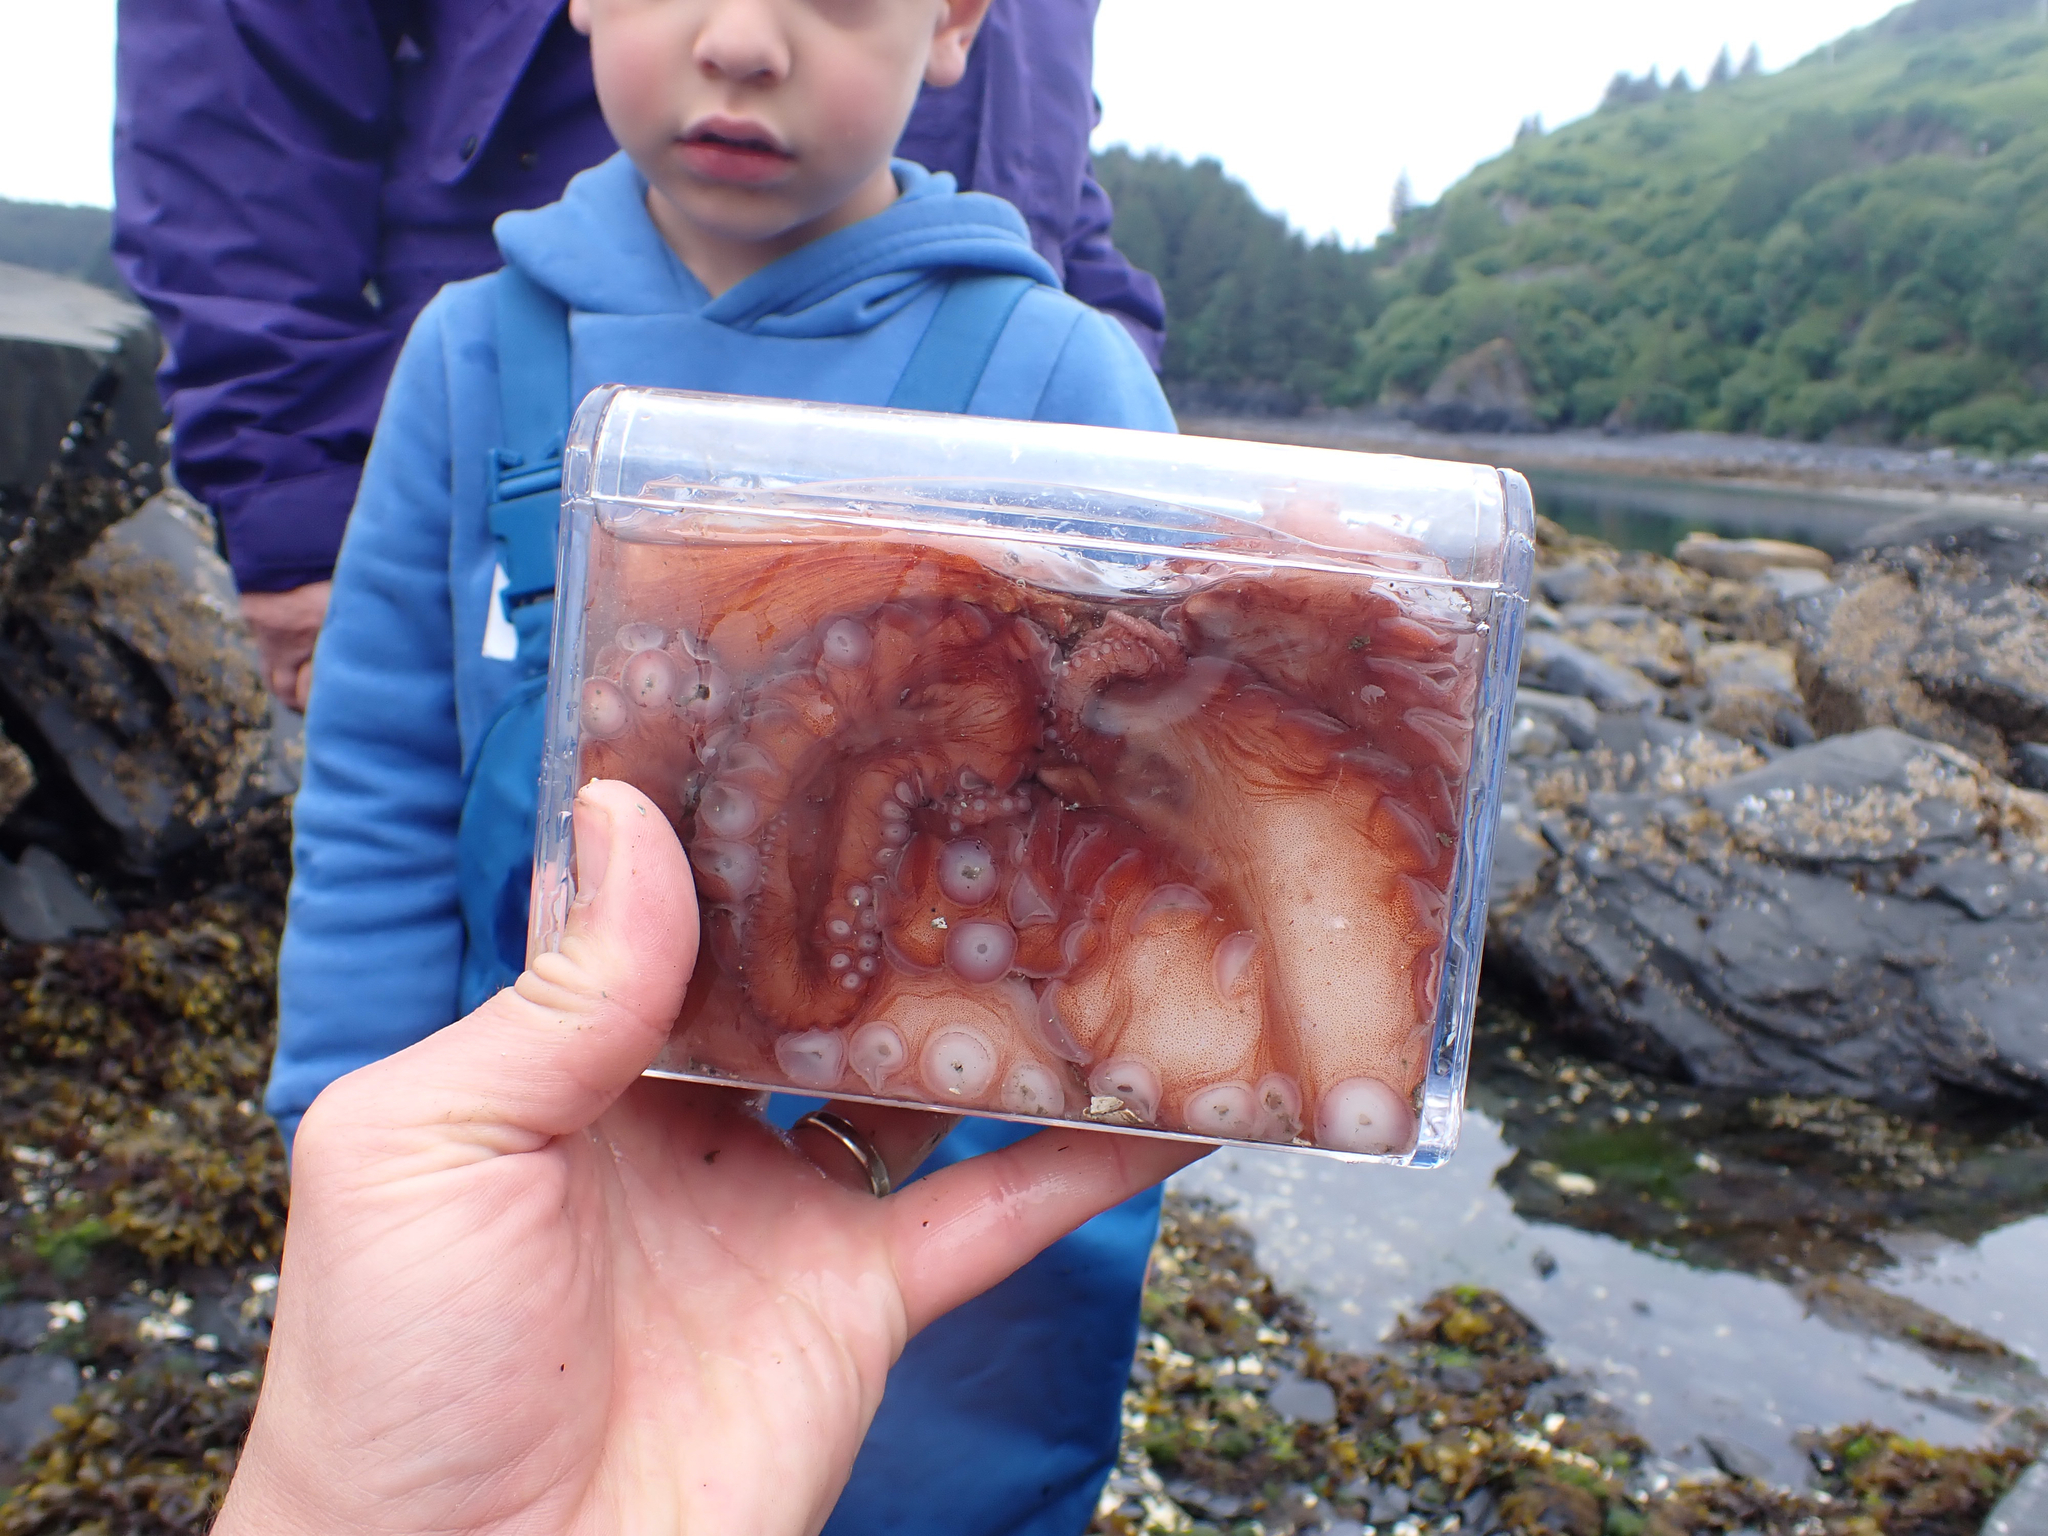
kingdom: Animalia
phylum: Mollusca
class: Cephalopoda
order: Octopoda
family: Enteroctopodidae
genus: Enteroctopus
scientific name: Enteroctopus dofleini
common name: Giant north pacific octopus
